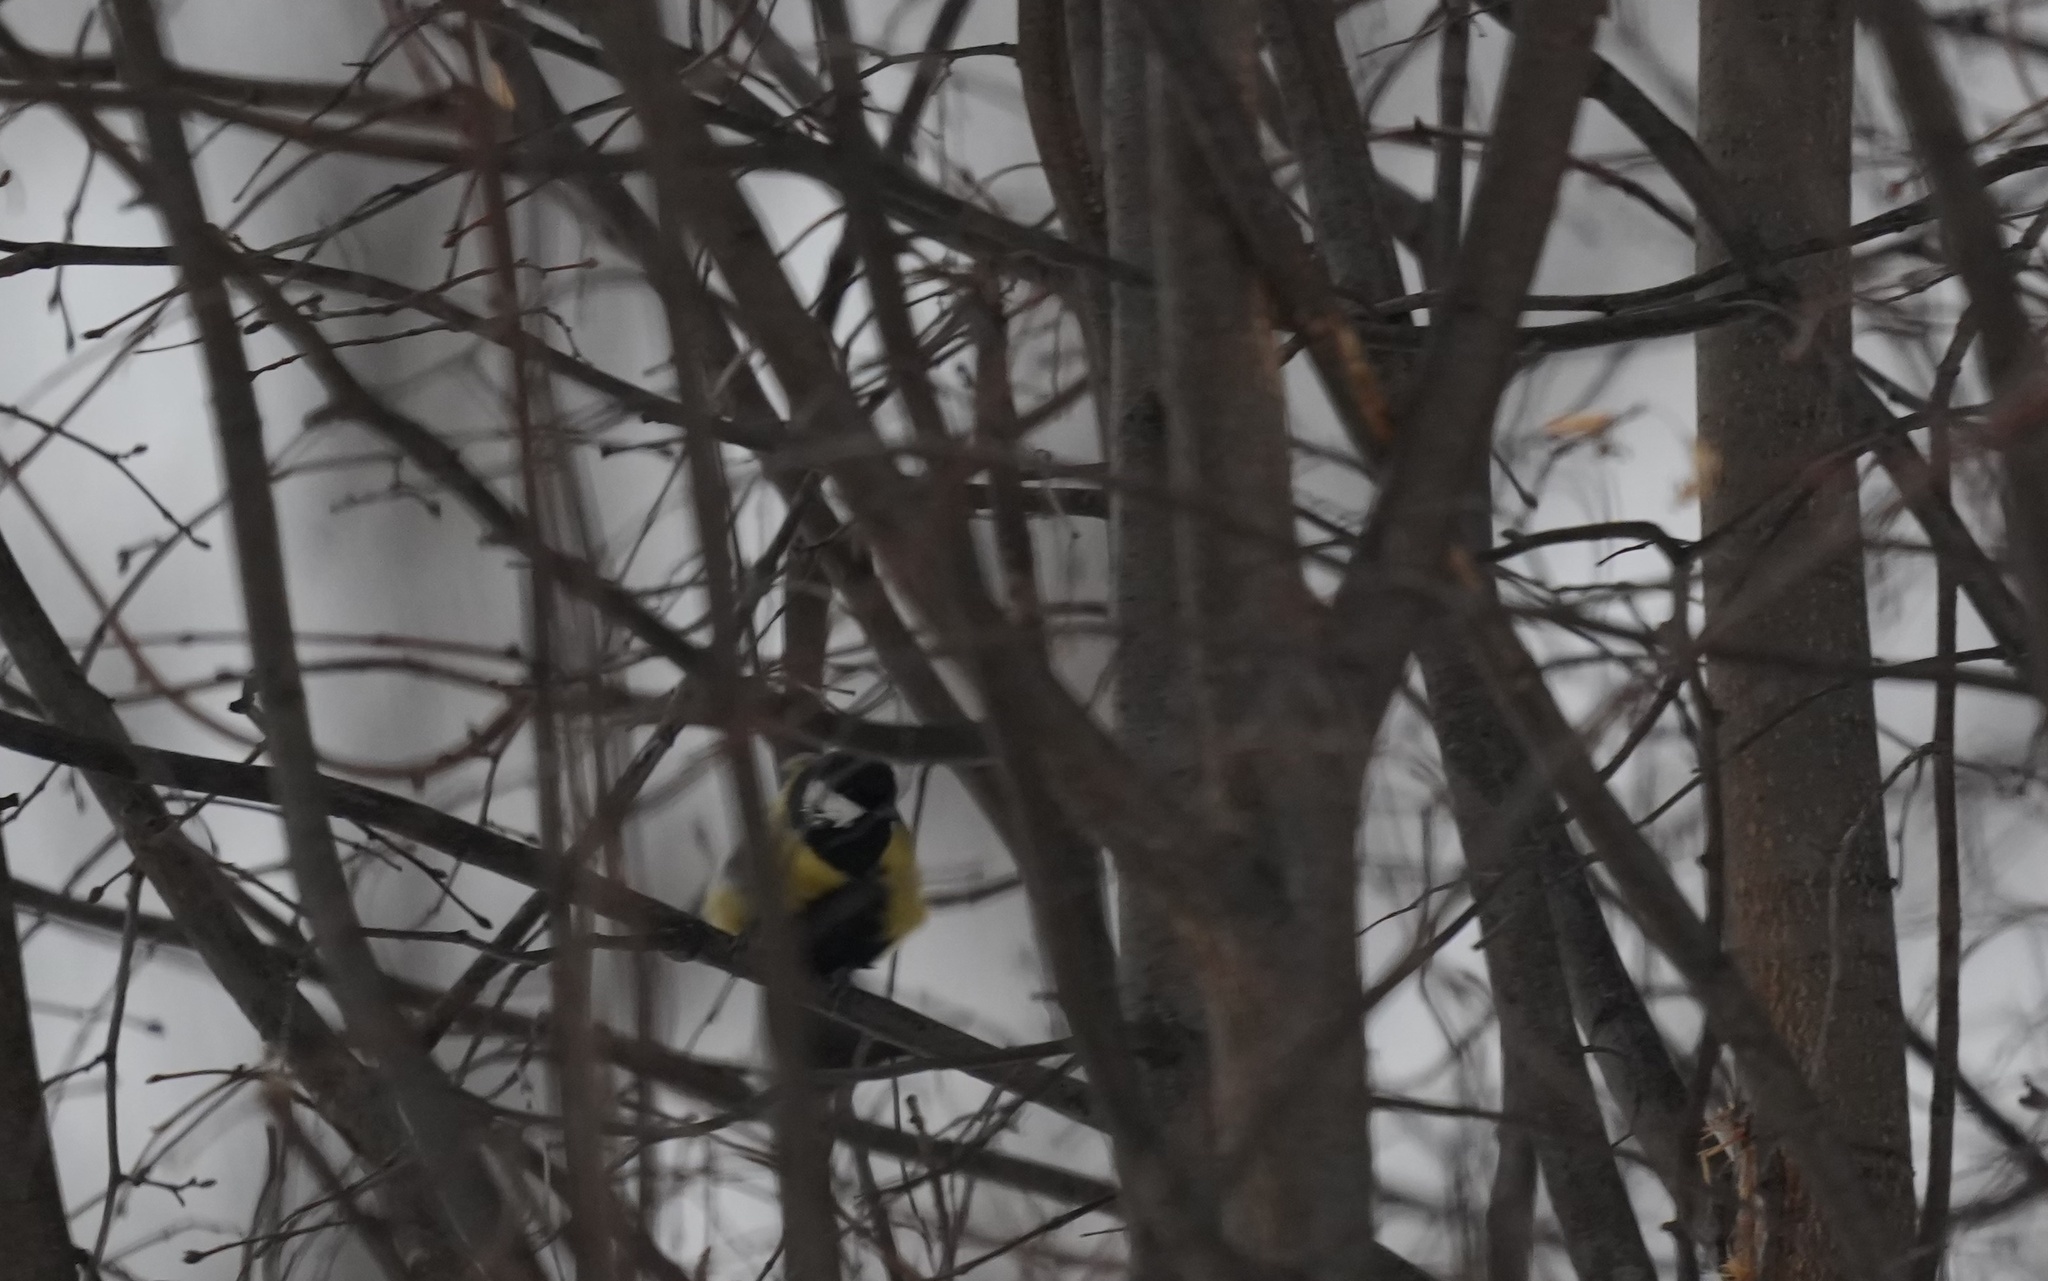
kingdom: Animalia
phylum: Chordata
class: Aves
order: Passeriformes
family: Paridae
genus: Parus
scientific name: Parus major
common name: Great tit
